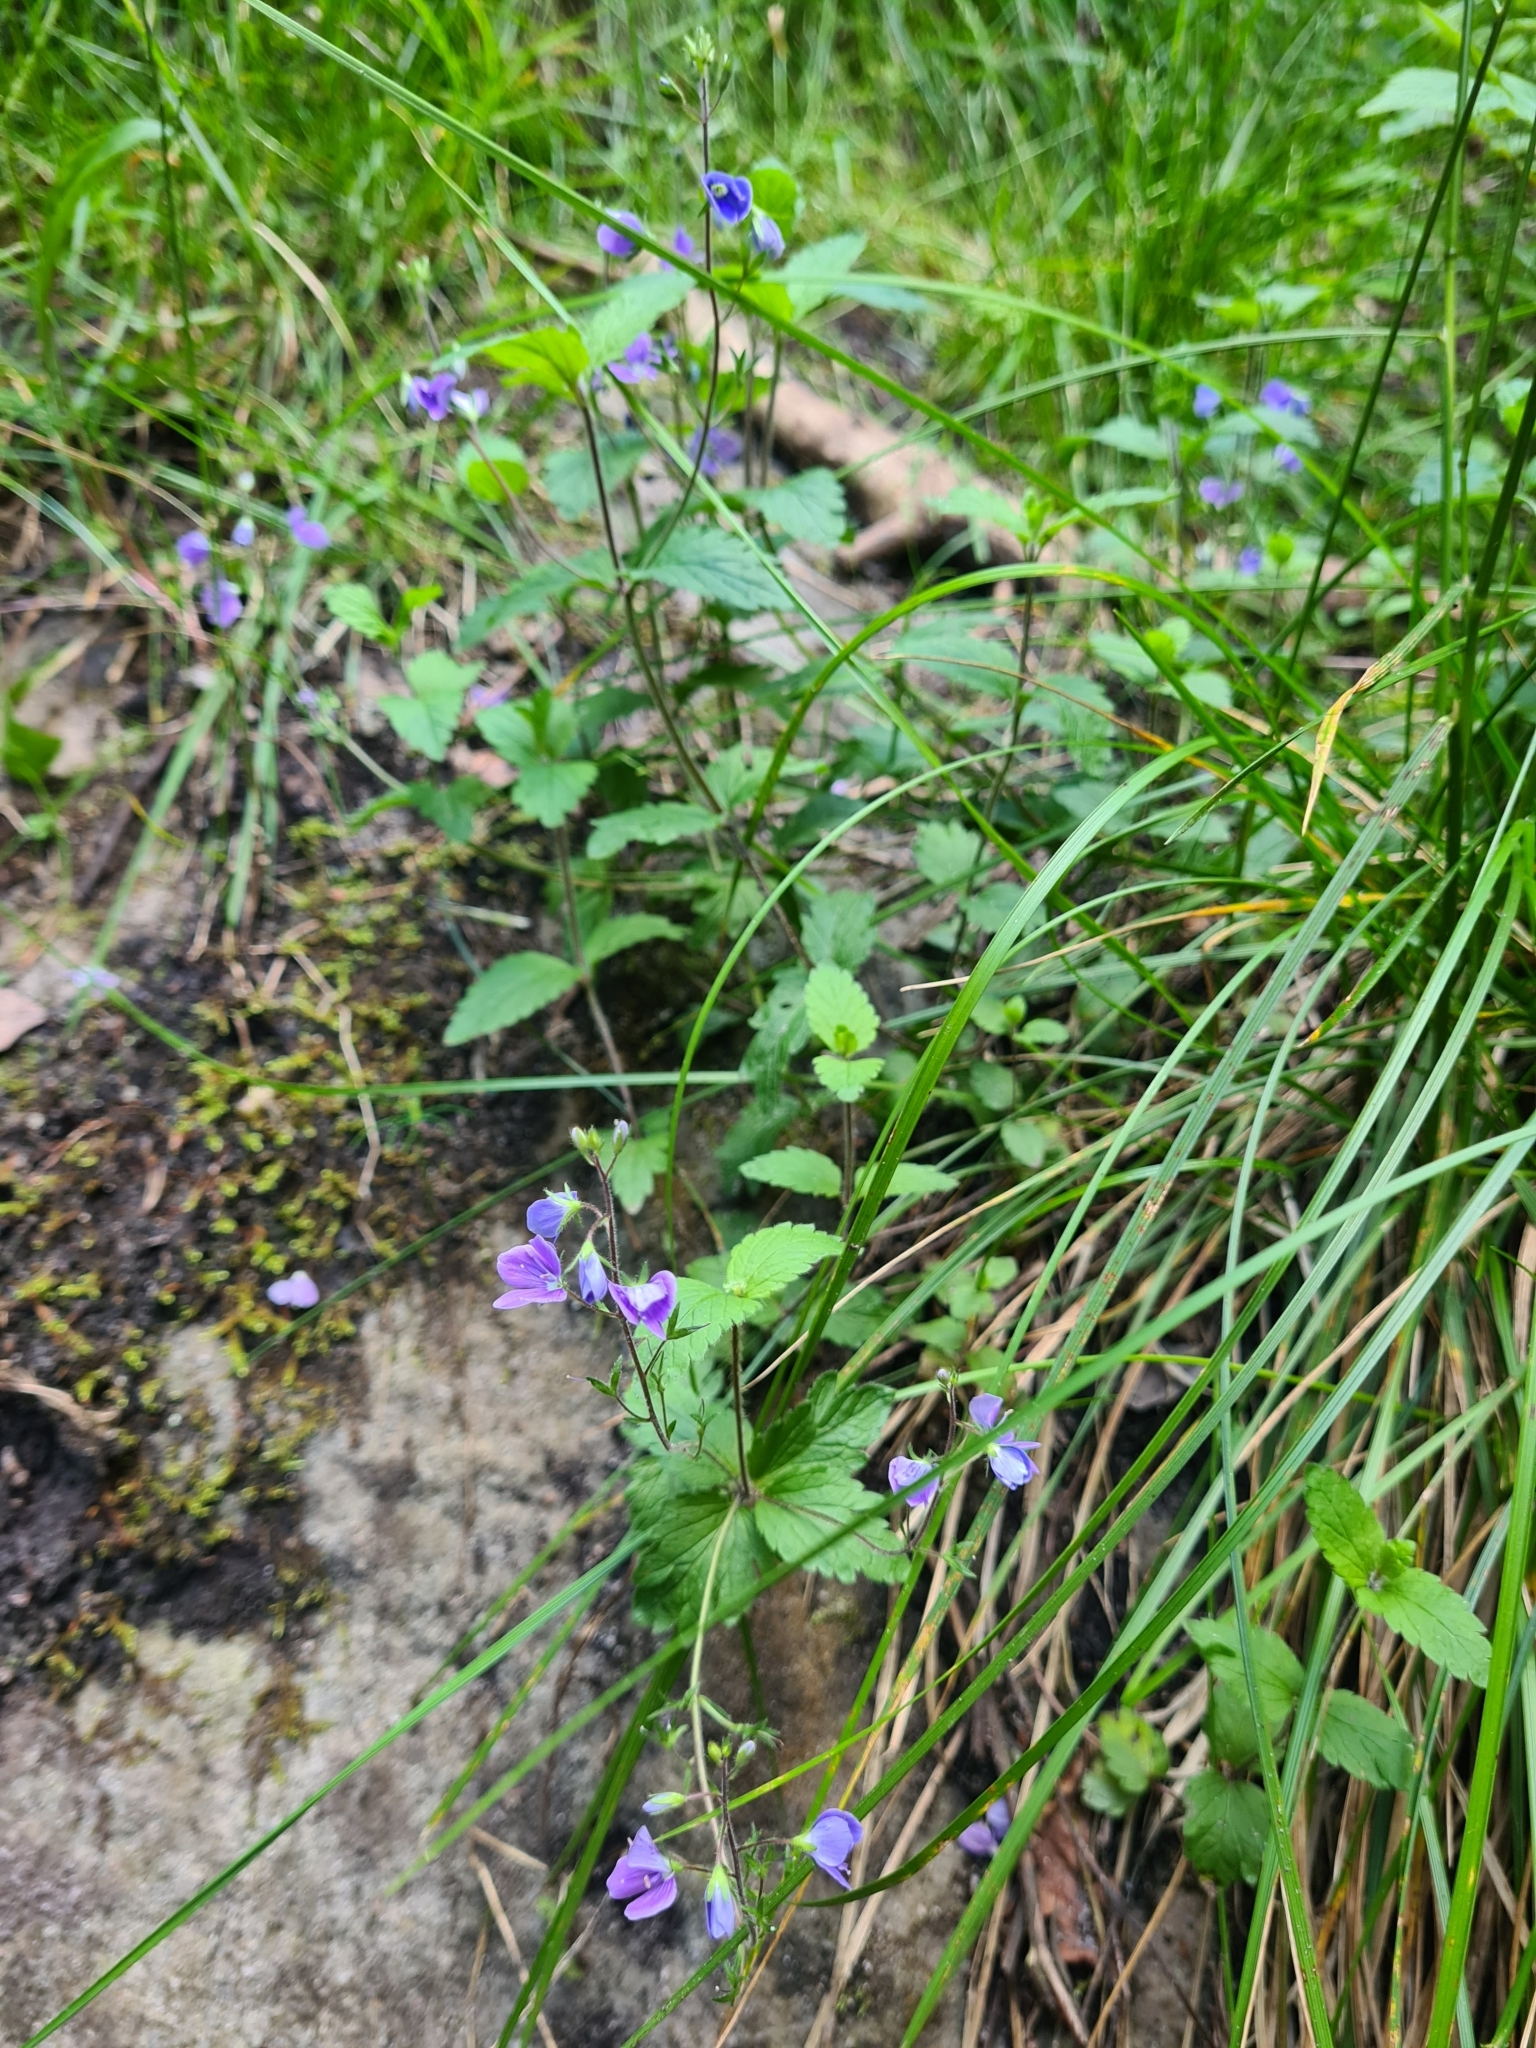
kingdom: Plantae
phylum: Tracheophyta
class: Magnoliopsida
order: Lamiales
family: Plantaginaceae
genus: Veronica
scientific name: Veronica chamaedrys
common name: Germander speedwell
